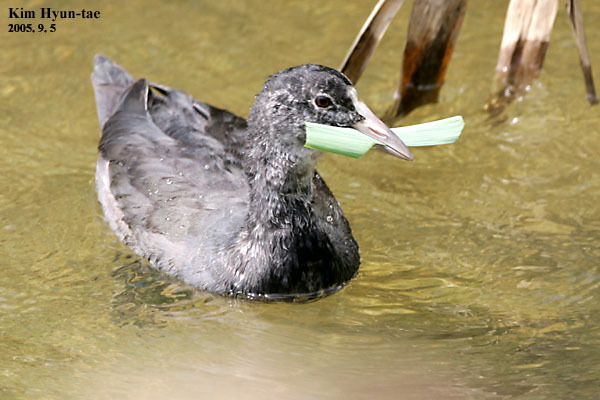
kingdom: Animalia
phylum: Chordata
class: Aves
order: Gruiformes
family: Rallidae
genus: Fulica
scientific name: Fulica atra
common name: Eurasian coot
